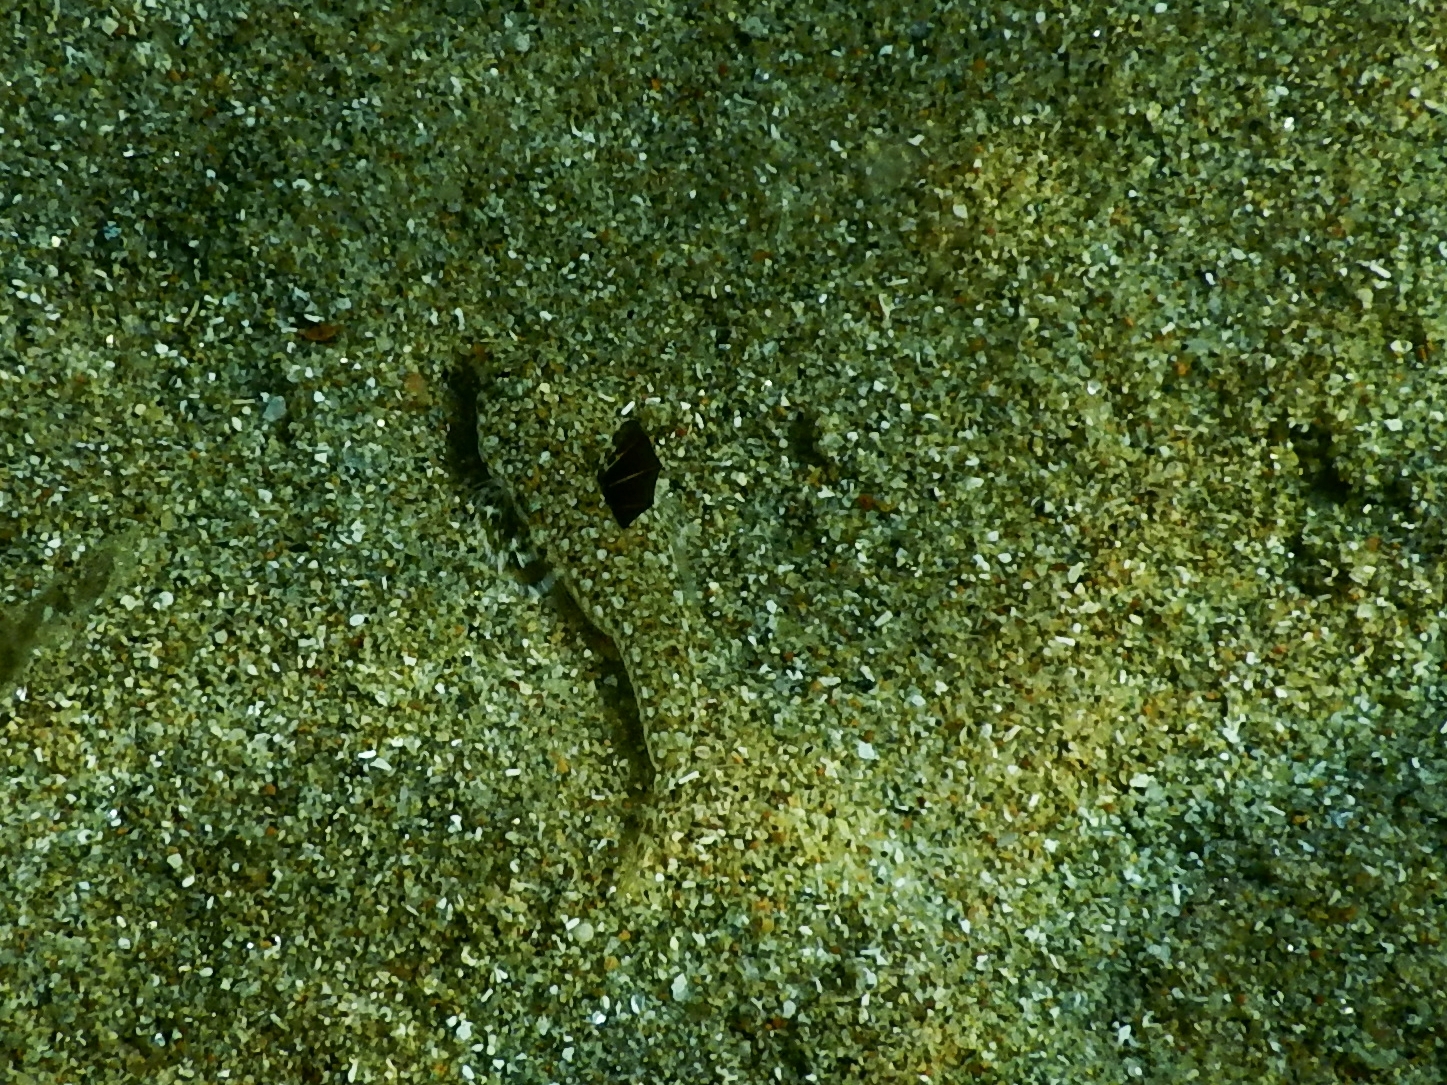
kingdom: Animalia
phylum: Chordata
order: Perciformes
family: Callionymidae
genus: Callionymus
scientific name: Callionymus pusillus
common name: Sailfin dragonet
